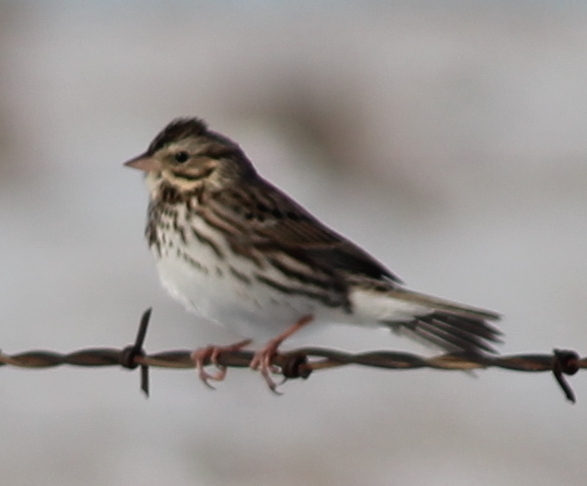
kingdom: Animalia
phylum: Chordata
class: Aves
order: Passeriformes
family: Passerellidae
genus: Passerculus
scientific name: Passerculus sandwichensis
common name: Savannah sparrow
